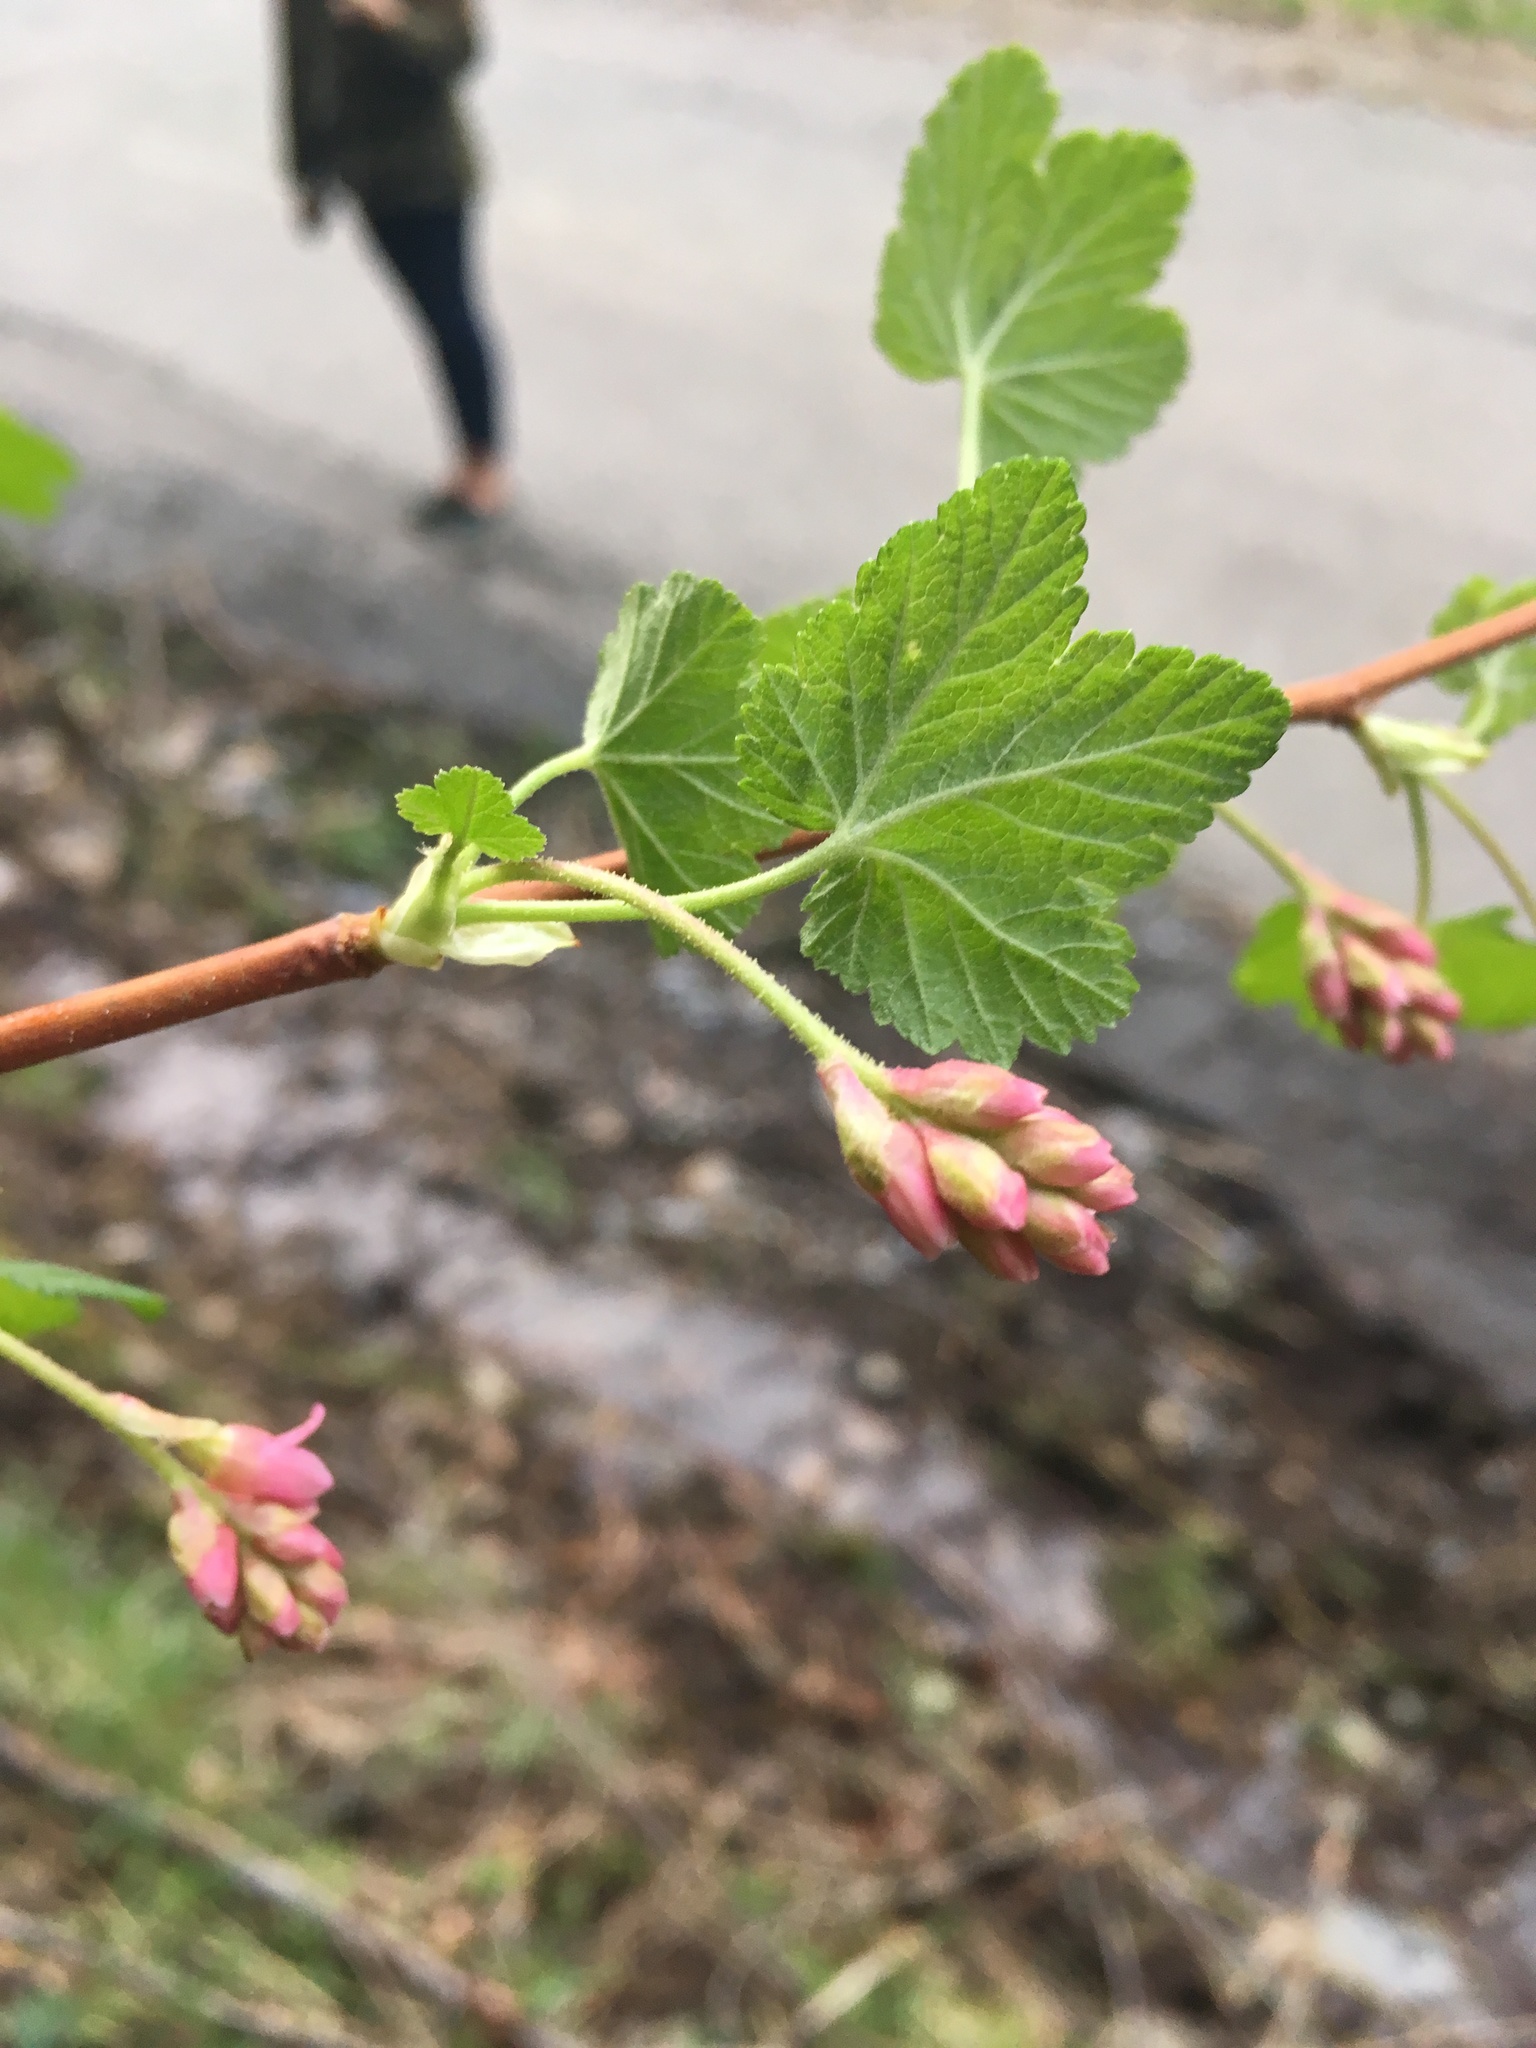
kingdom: Plantae
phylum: Tracheophyta
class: Magnoliopsida
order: Saxifragales
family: Grossulariaceae
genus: Ribes
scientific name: Ribes nevadense
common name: Mountain pink currant
